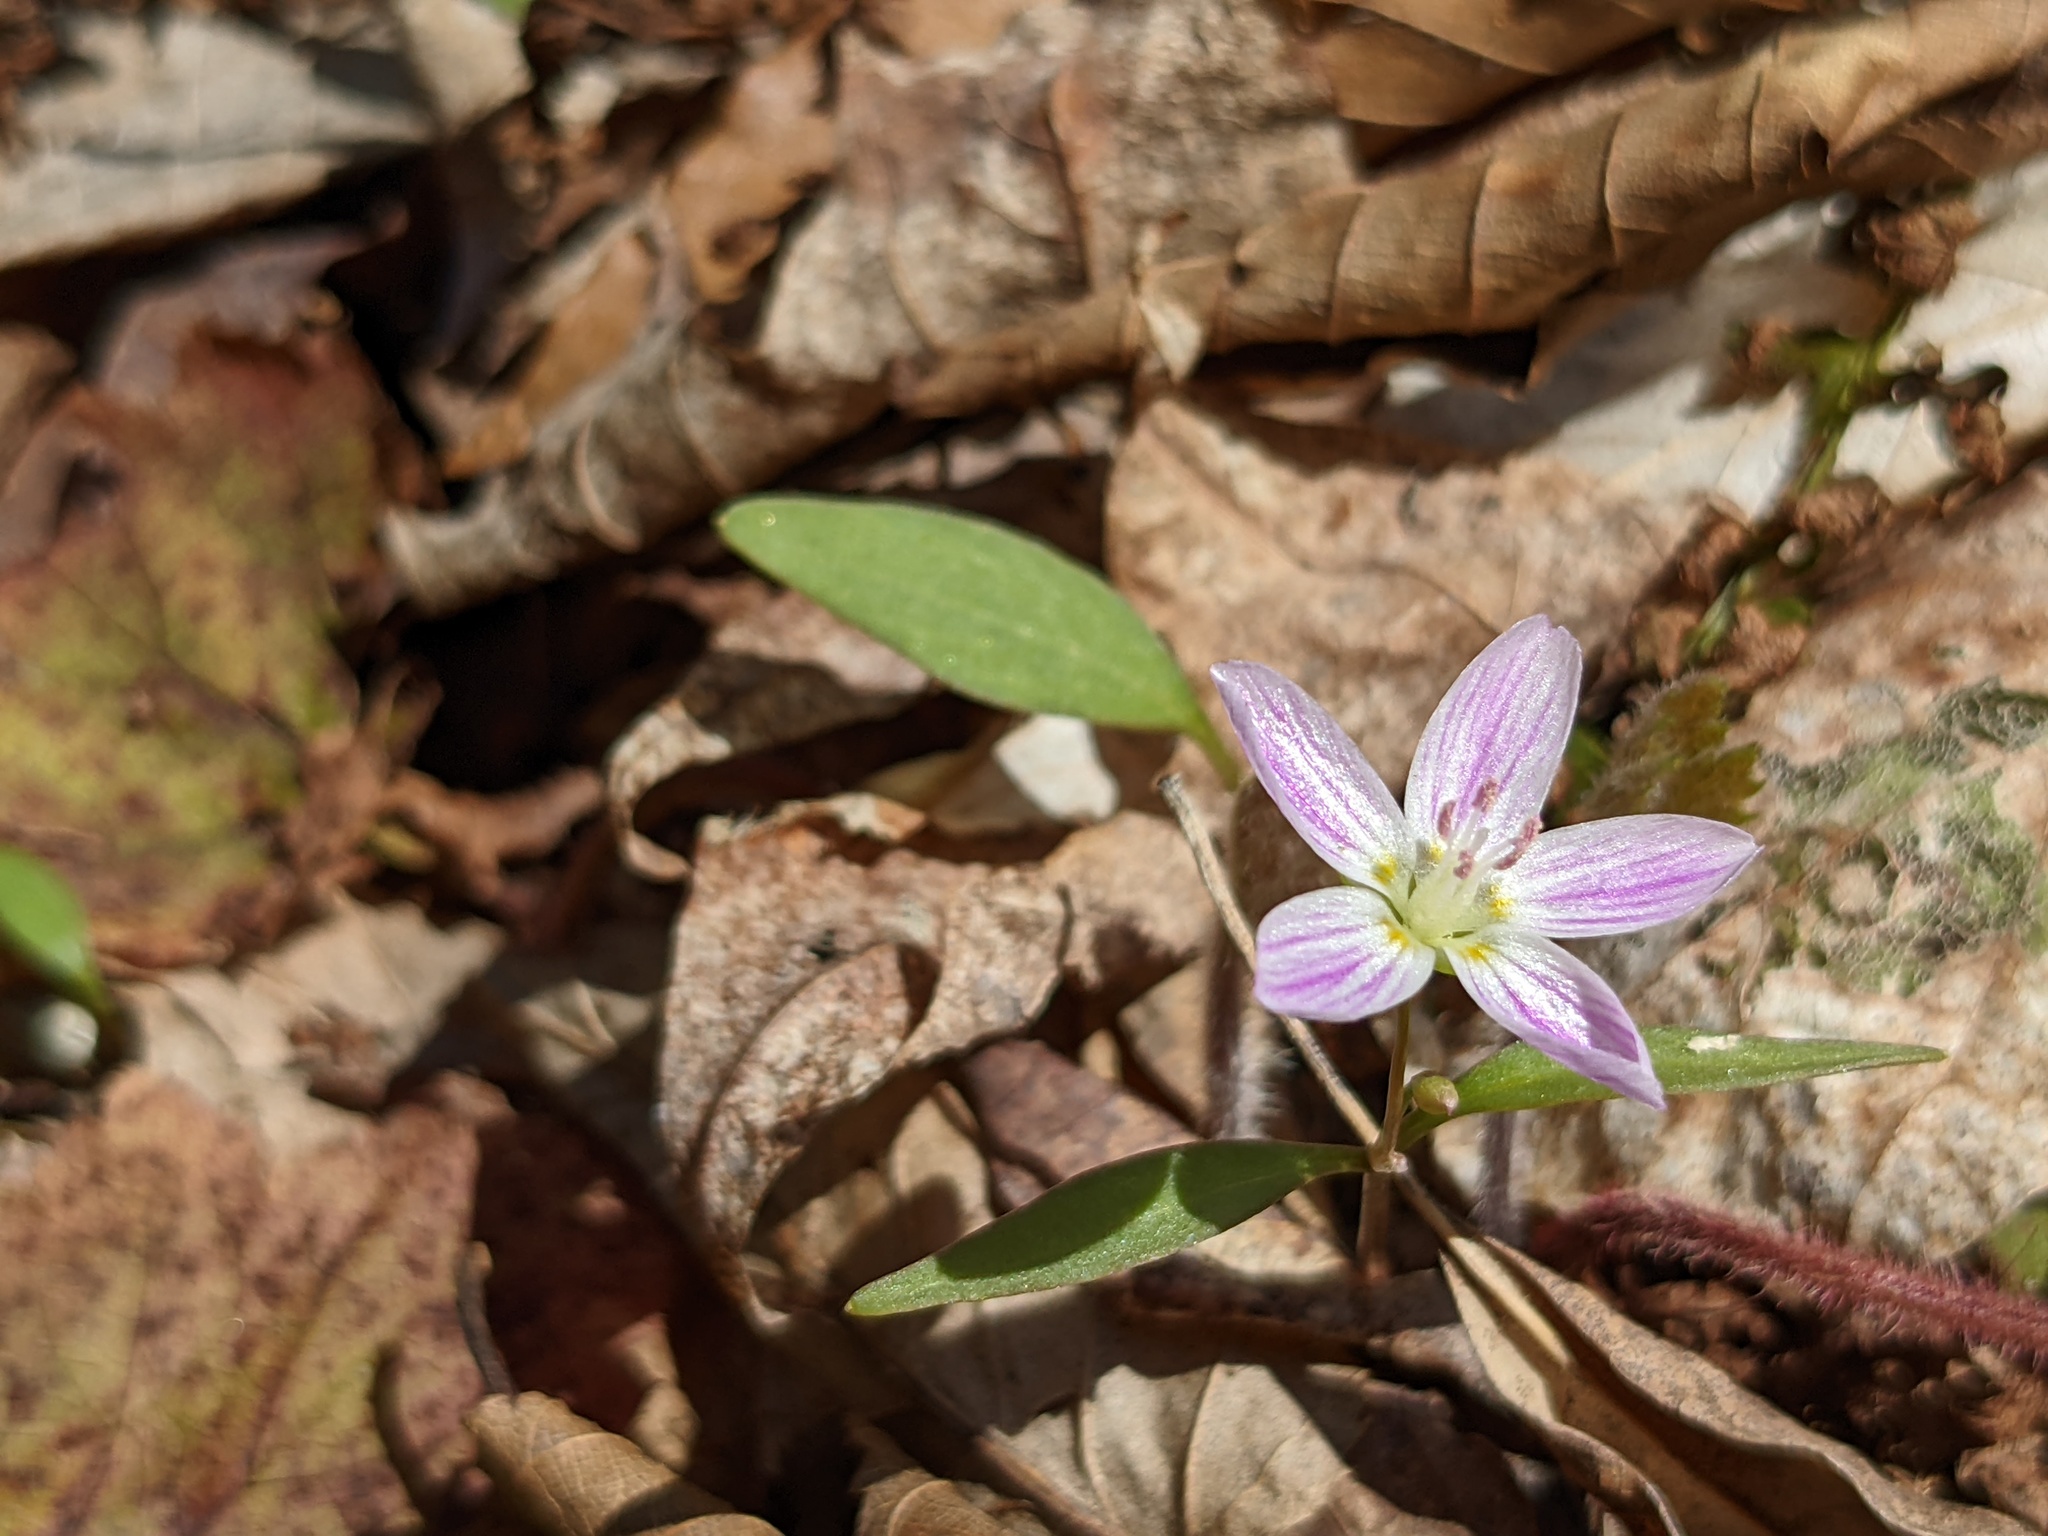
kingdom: Plantae
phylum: Tracheophyta
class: Magnoliopsida
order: Caryophyllales
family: Montiaceae
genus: Claytonia
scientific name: Claytonia caroliniana
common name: Carolina spring beauty
